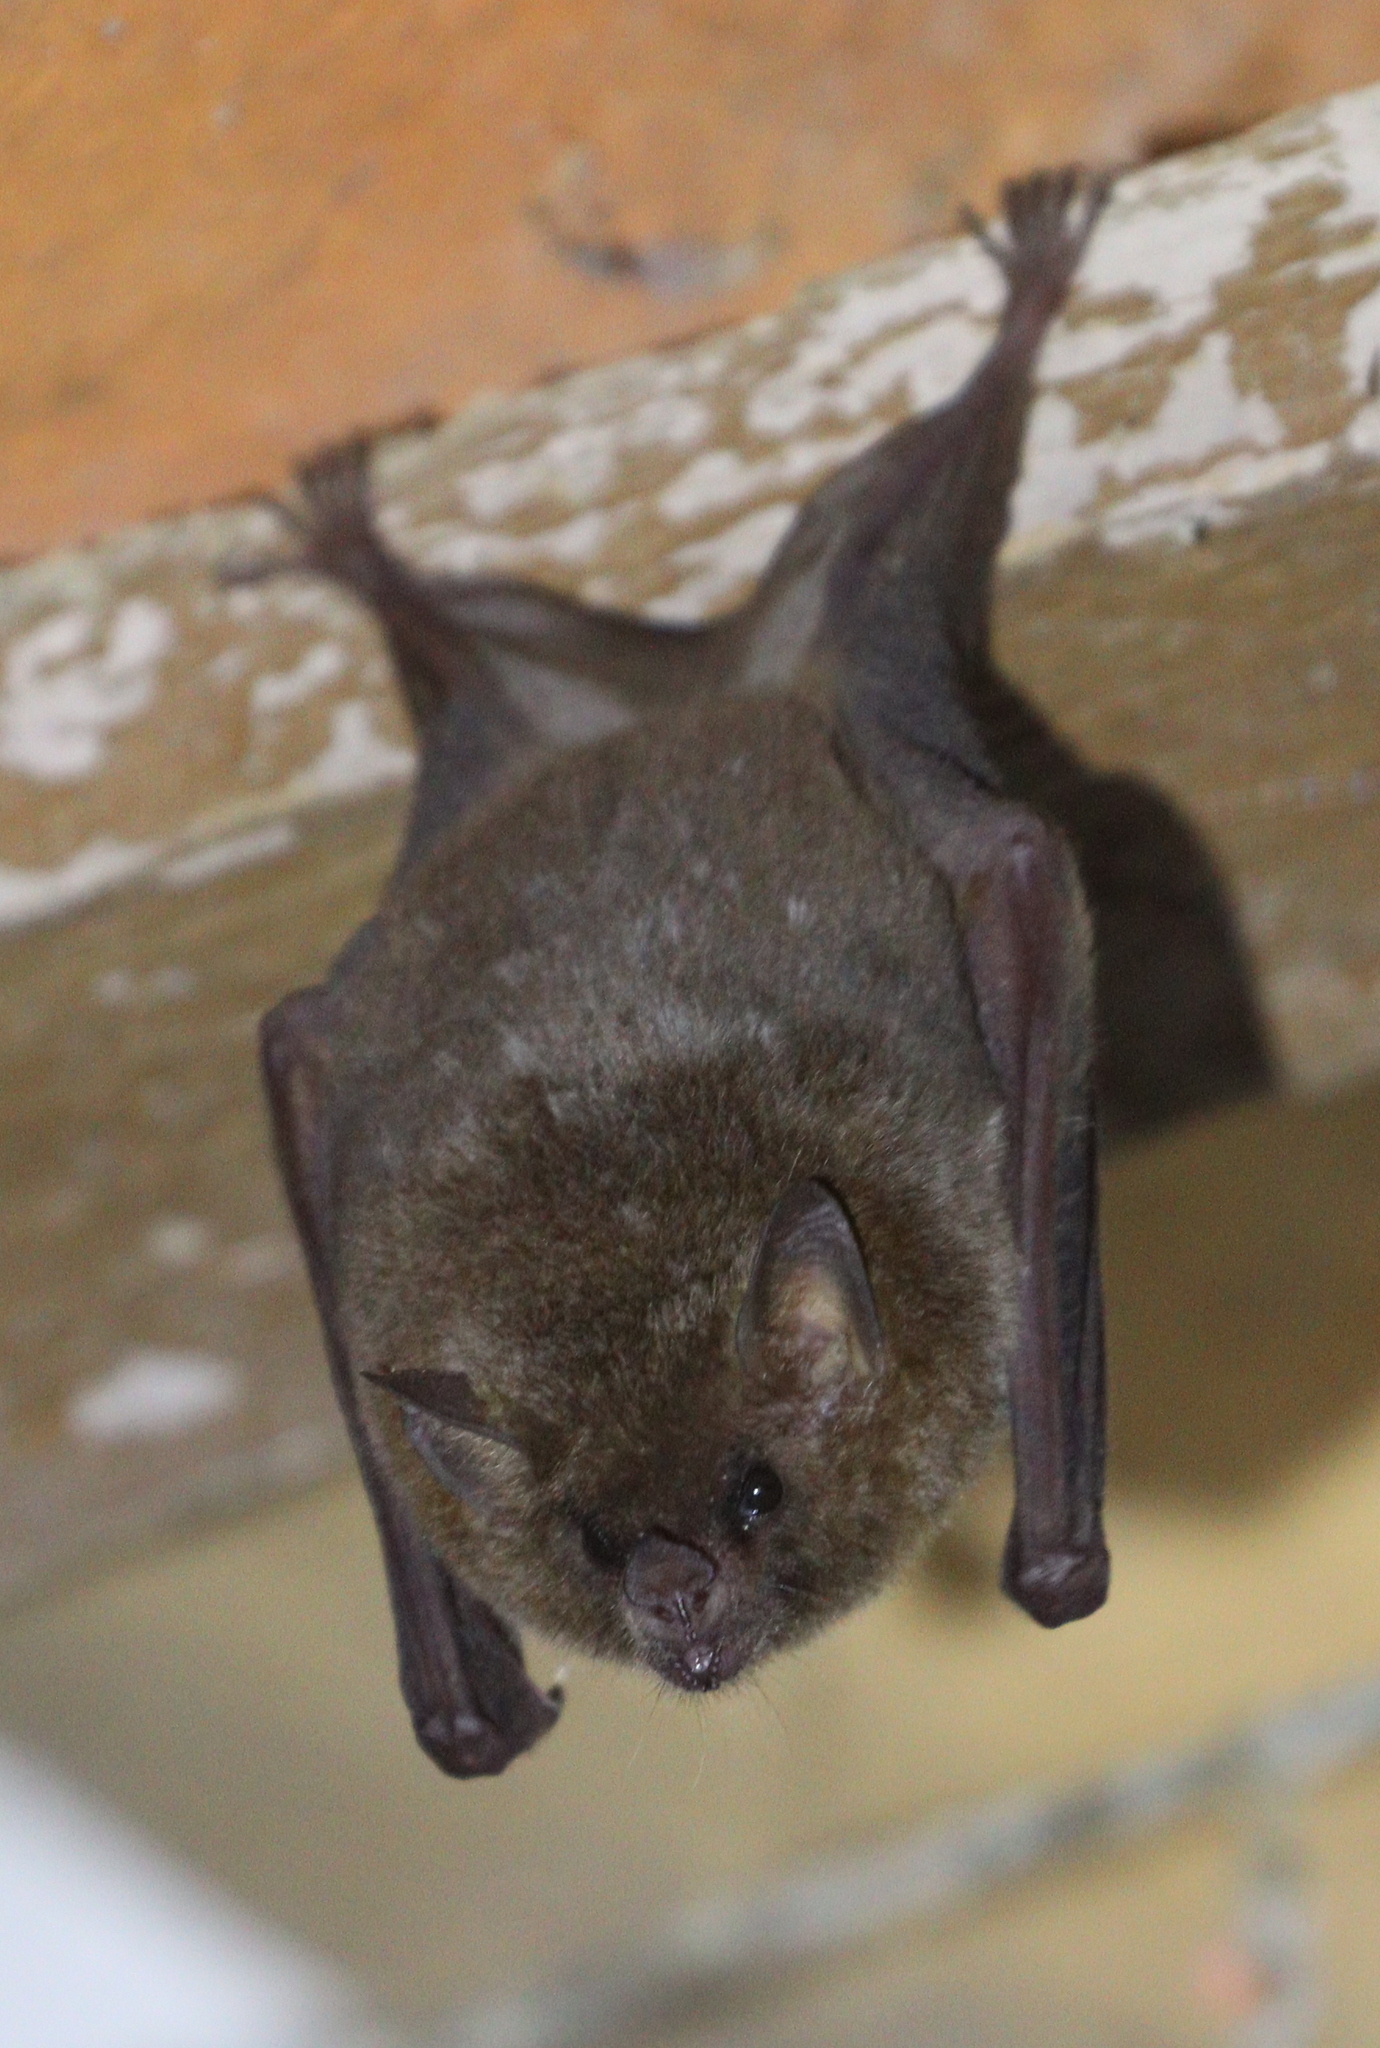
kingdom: Animalia
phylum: Chordata
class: Mammalia
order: Chiroptera
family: Phyllostomidae
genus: Glossophaga
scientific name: Glossophaga soricina
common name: Pallas's long-tongued bat
